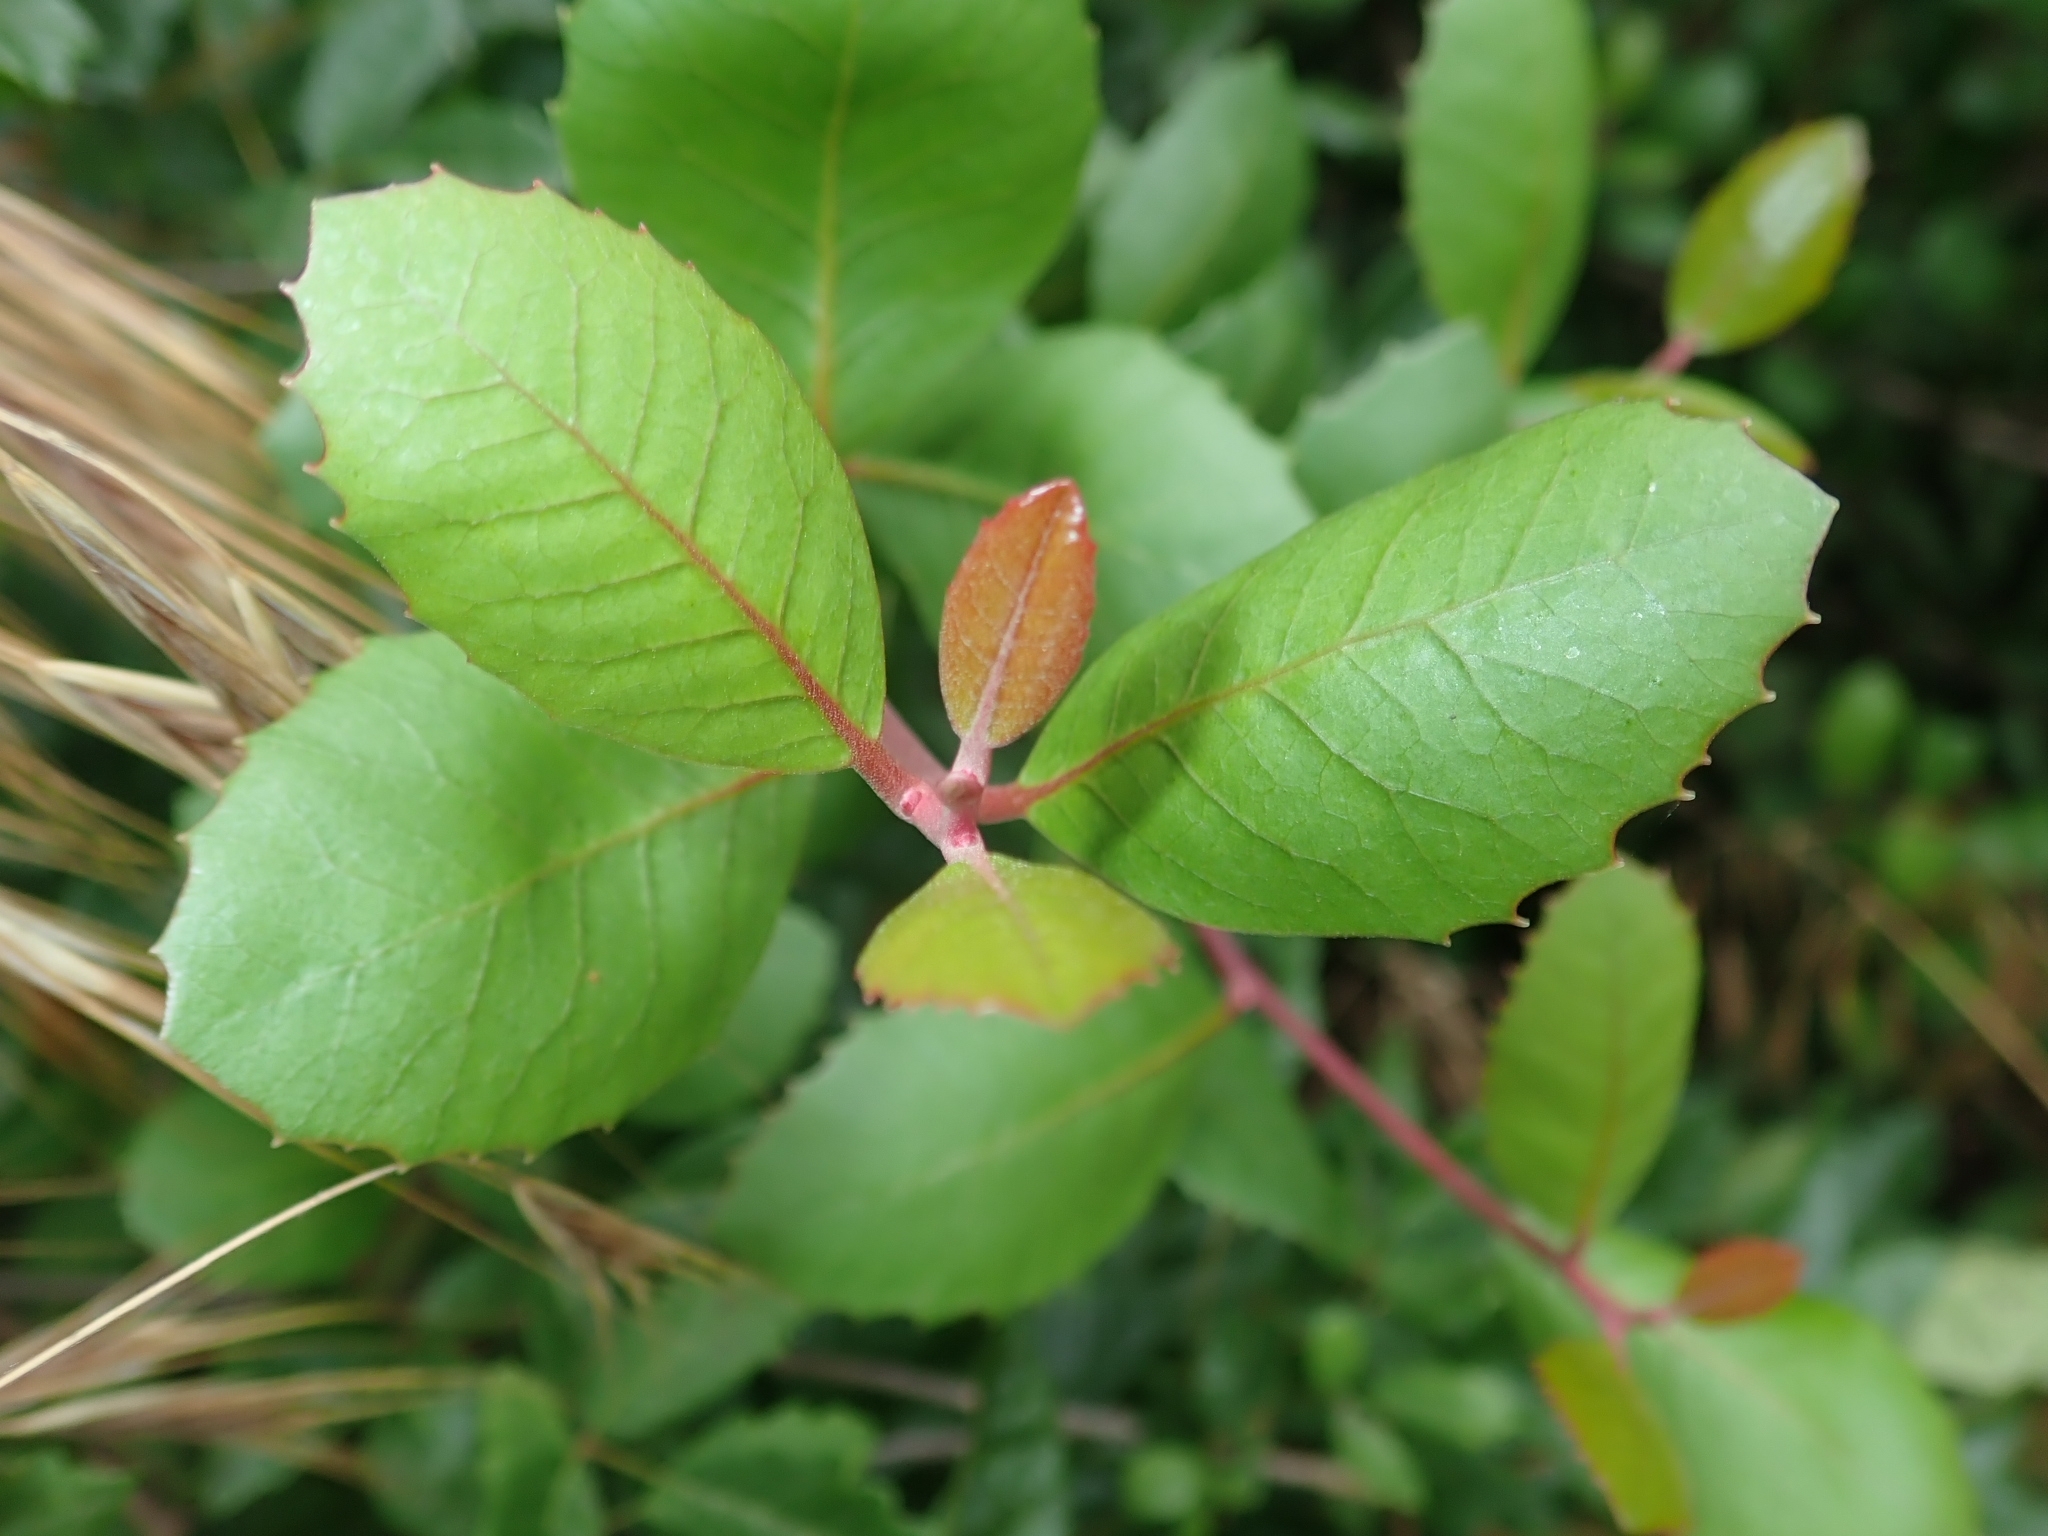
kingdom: Plantae
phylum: Tracheophyta
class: Magnoliopsida
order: Sapindales
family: Anacardiaceae
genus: Rhus
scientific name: Rhus integrifolia
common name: Lemonade sumac
